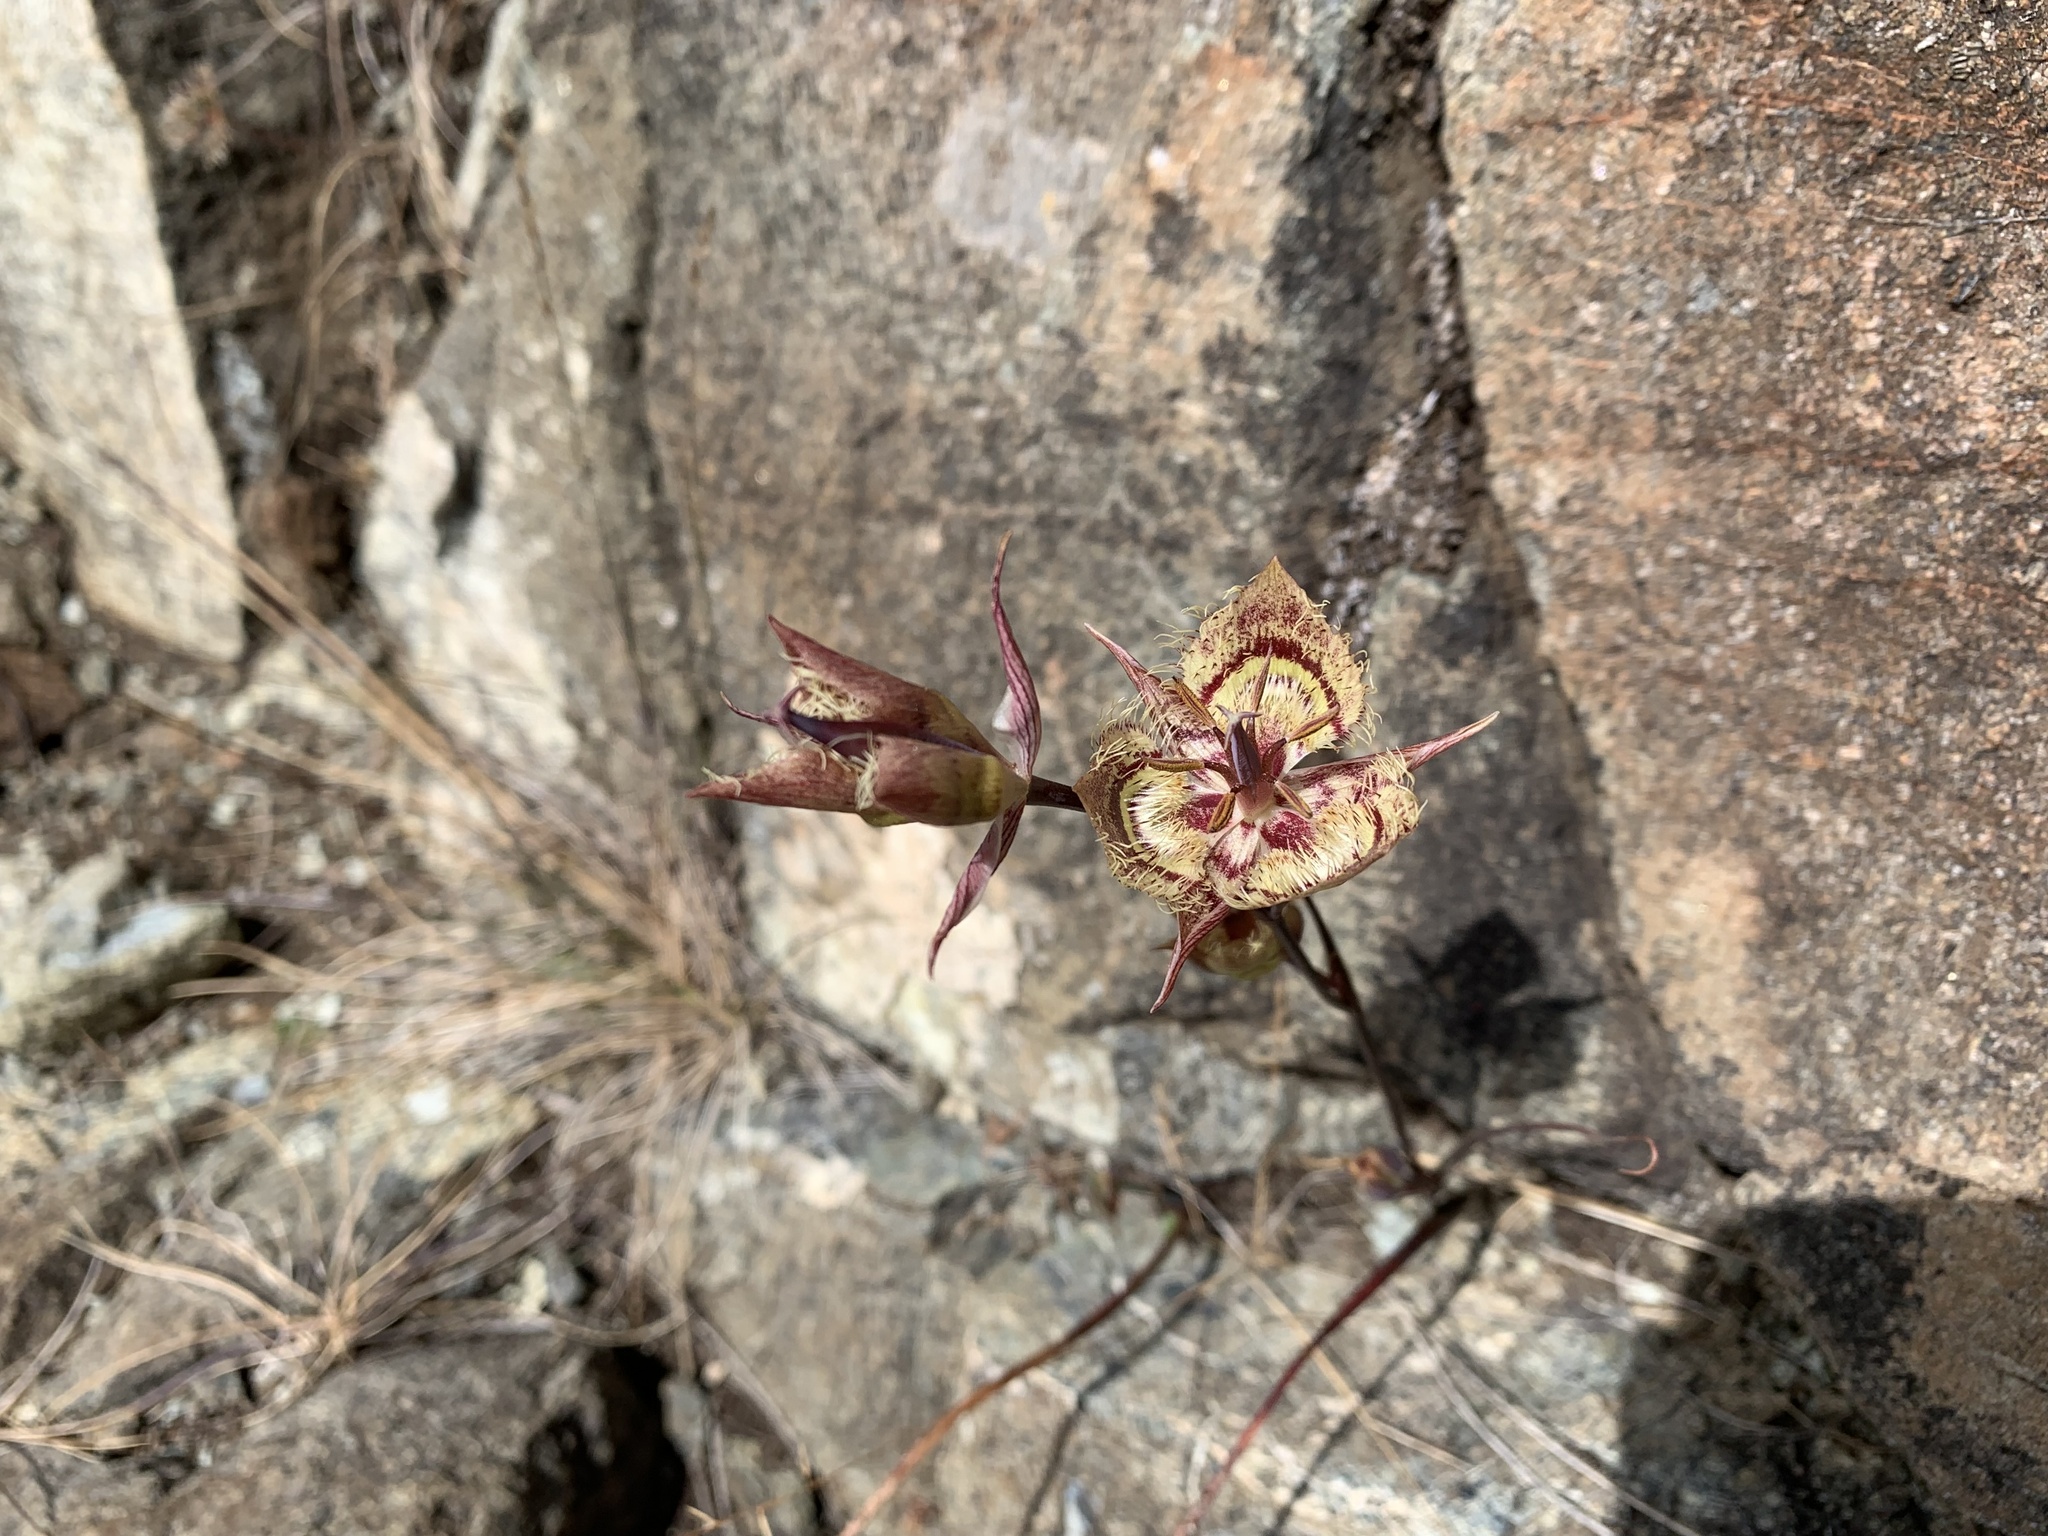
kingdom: Plantae
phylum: Tracheophyta
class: Liliopsida
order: Liliales
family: Liliaceae
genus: Calochortus
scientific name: Calochortus tiburonensis
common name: Tiburon mariposa-lily
